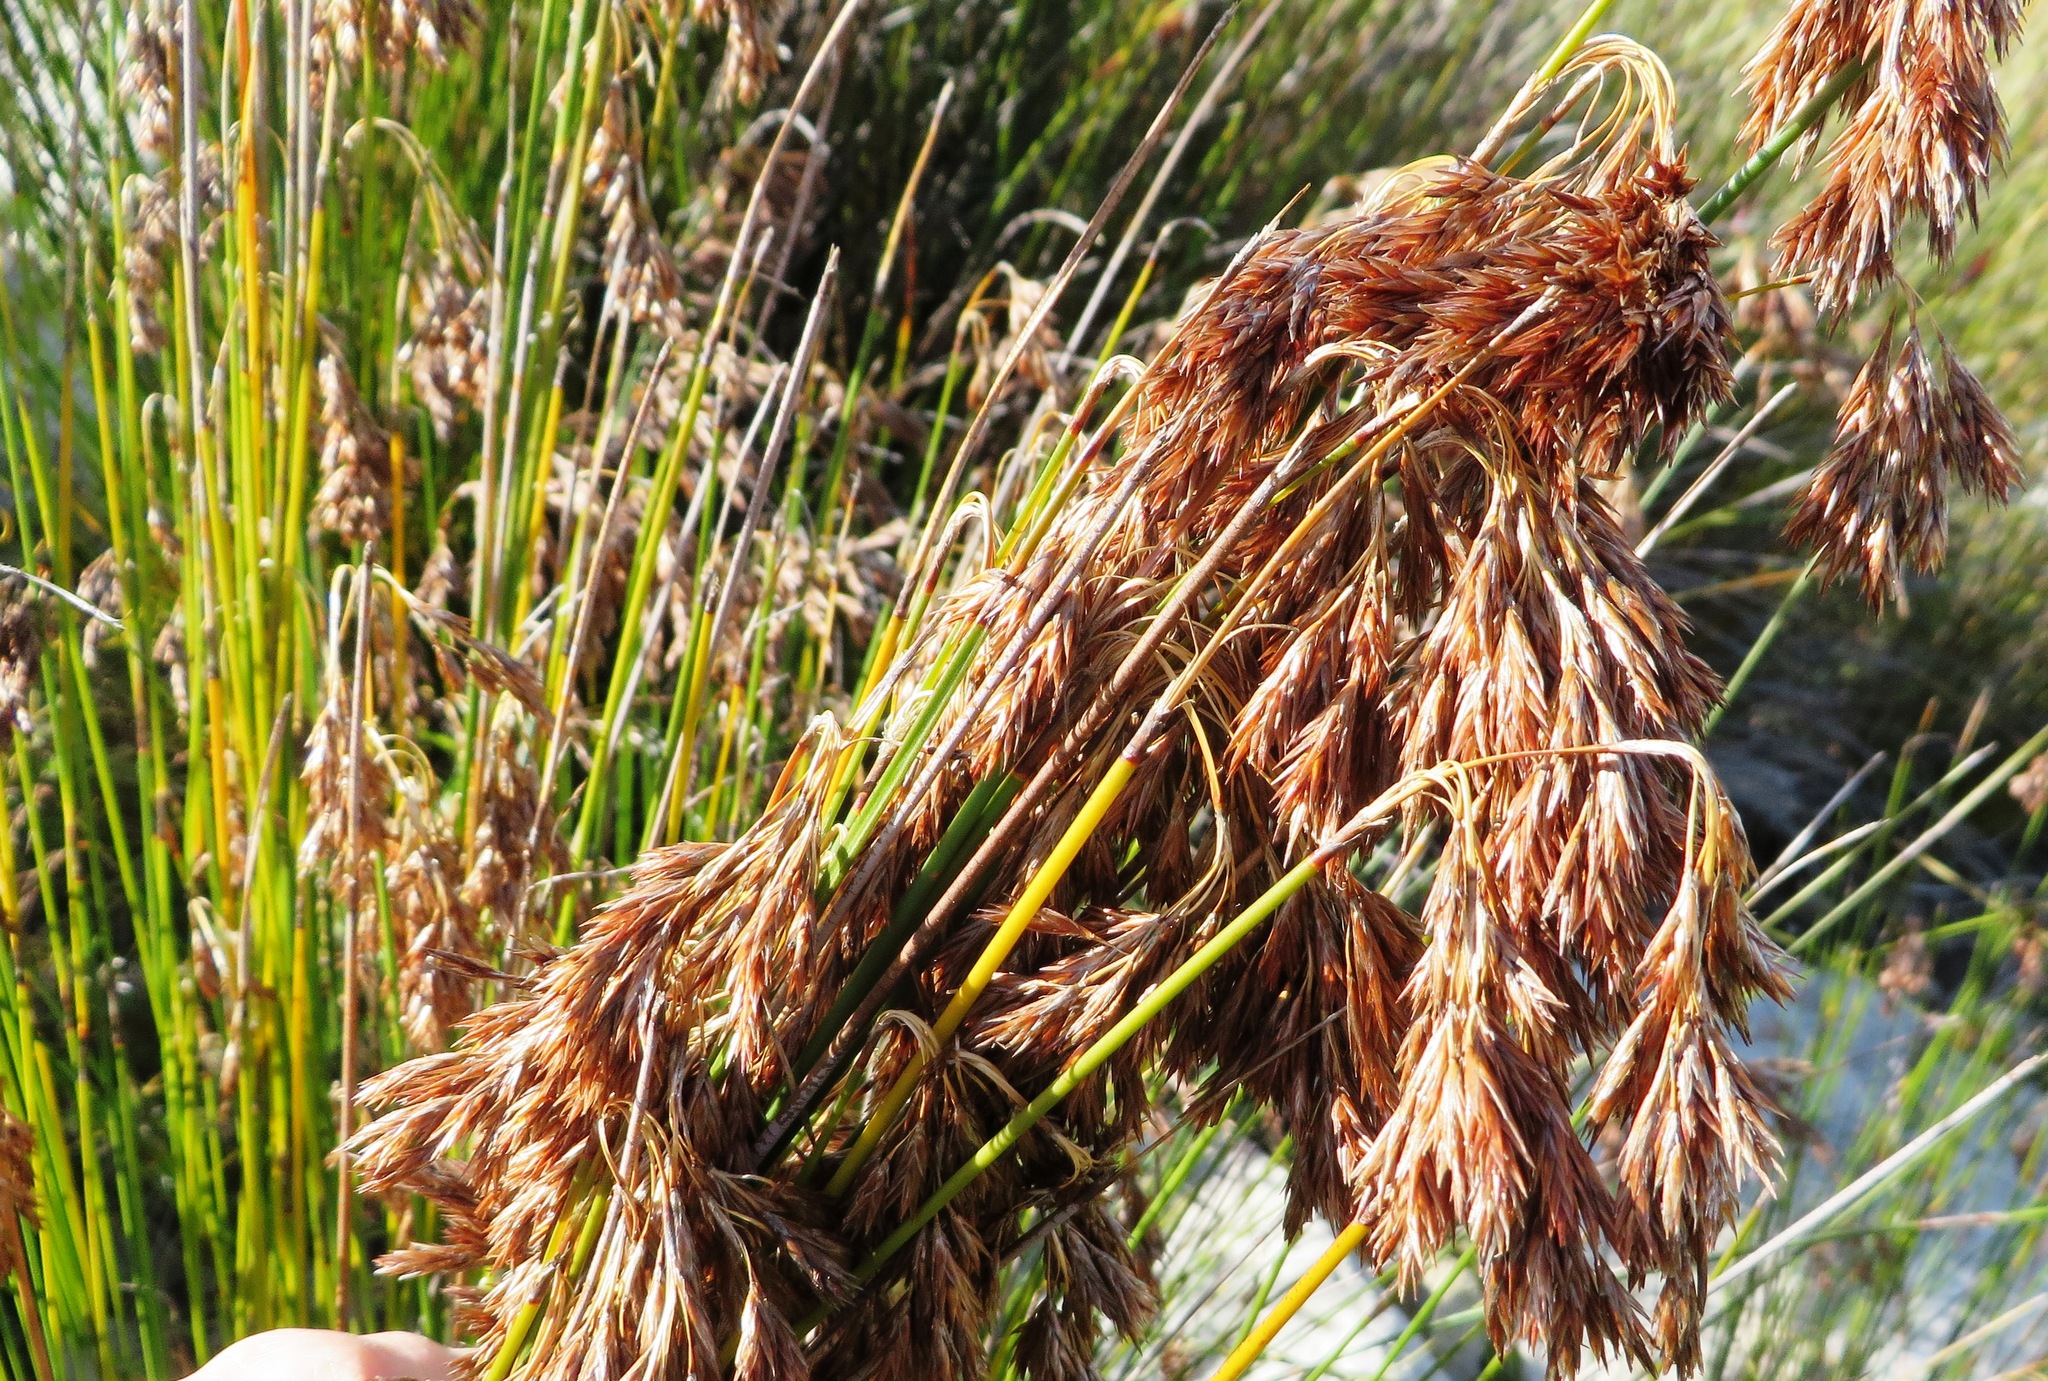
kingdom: Plantae
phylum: Tracheophyta
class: Liliopsida
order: Poales
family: Restionaceae
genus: Thamnochortus
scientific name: Thamnochortus insignis
